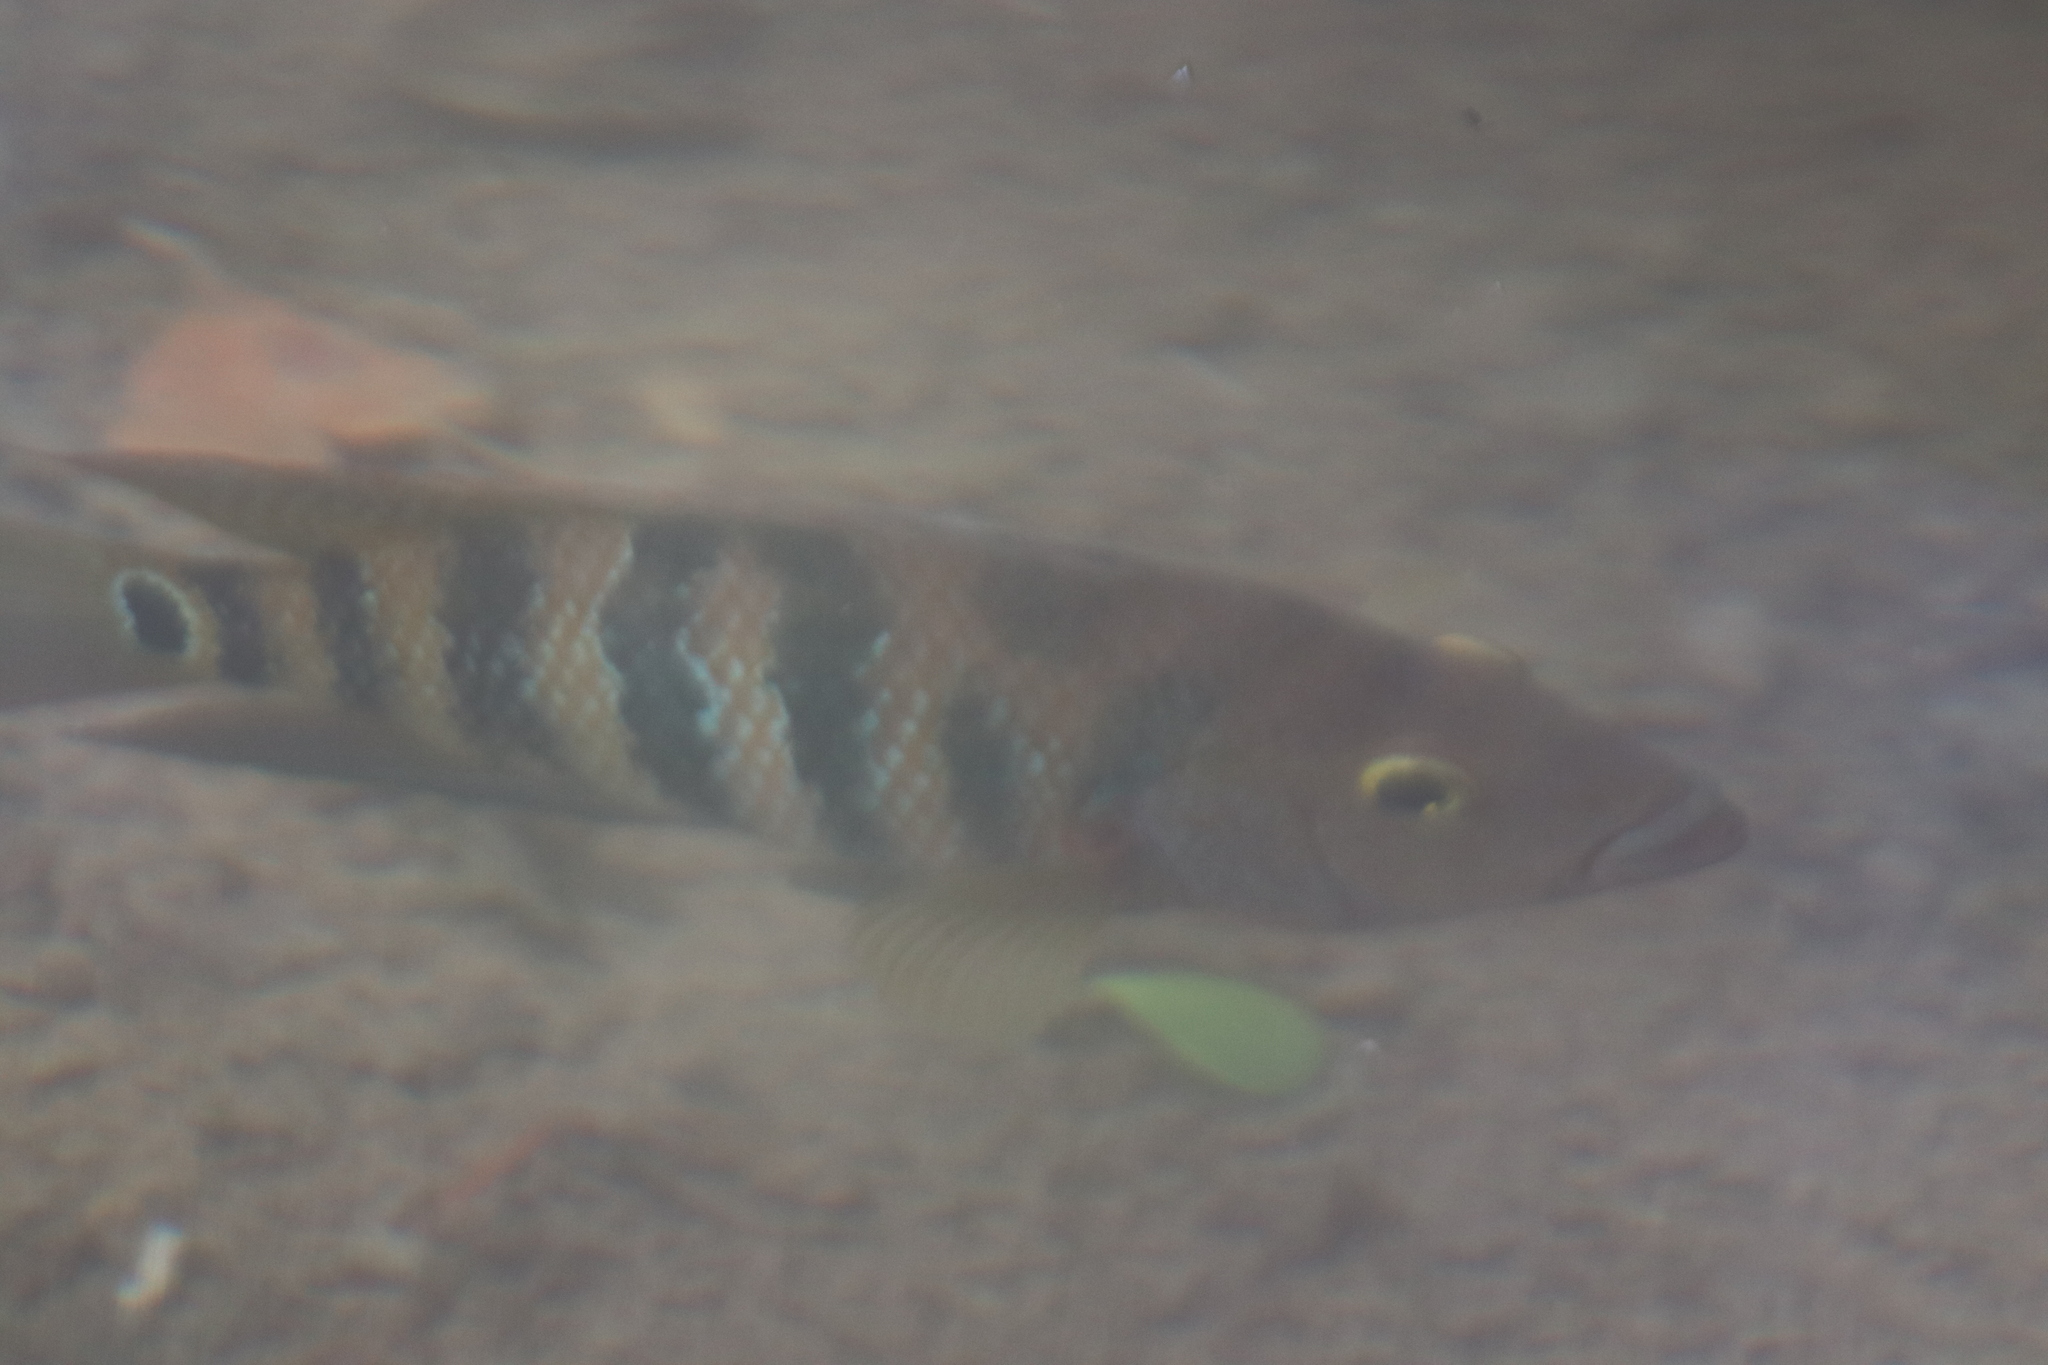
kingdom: Animalia
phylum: Chordata
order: Perciformes
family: Cichlidae
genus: Mayaheros
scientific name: Mayaheros urophthalmus
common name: Mayan cichlid
